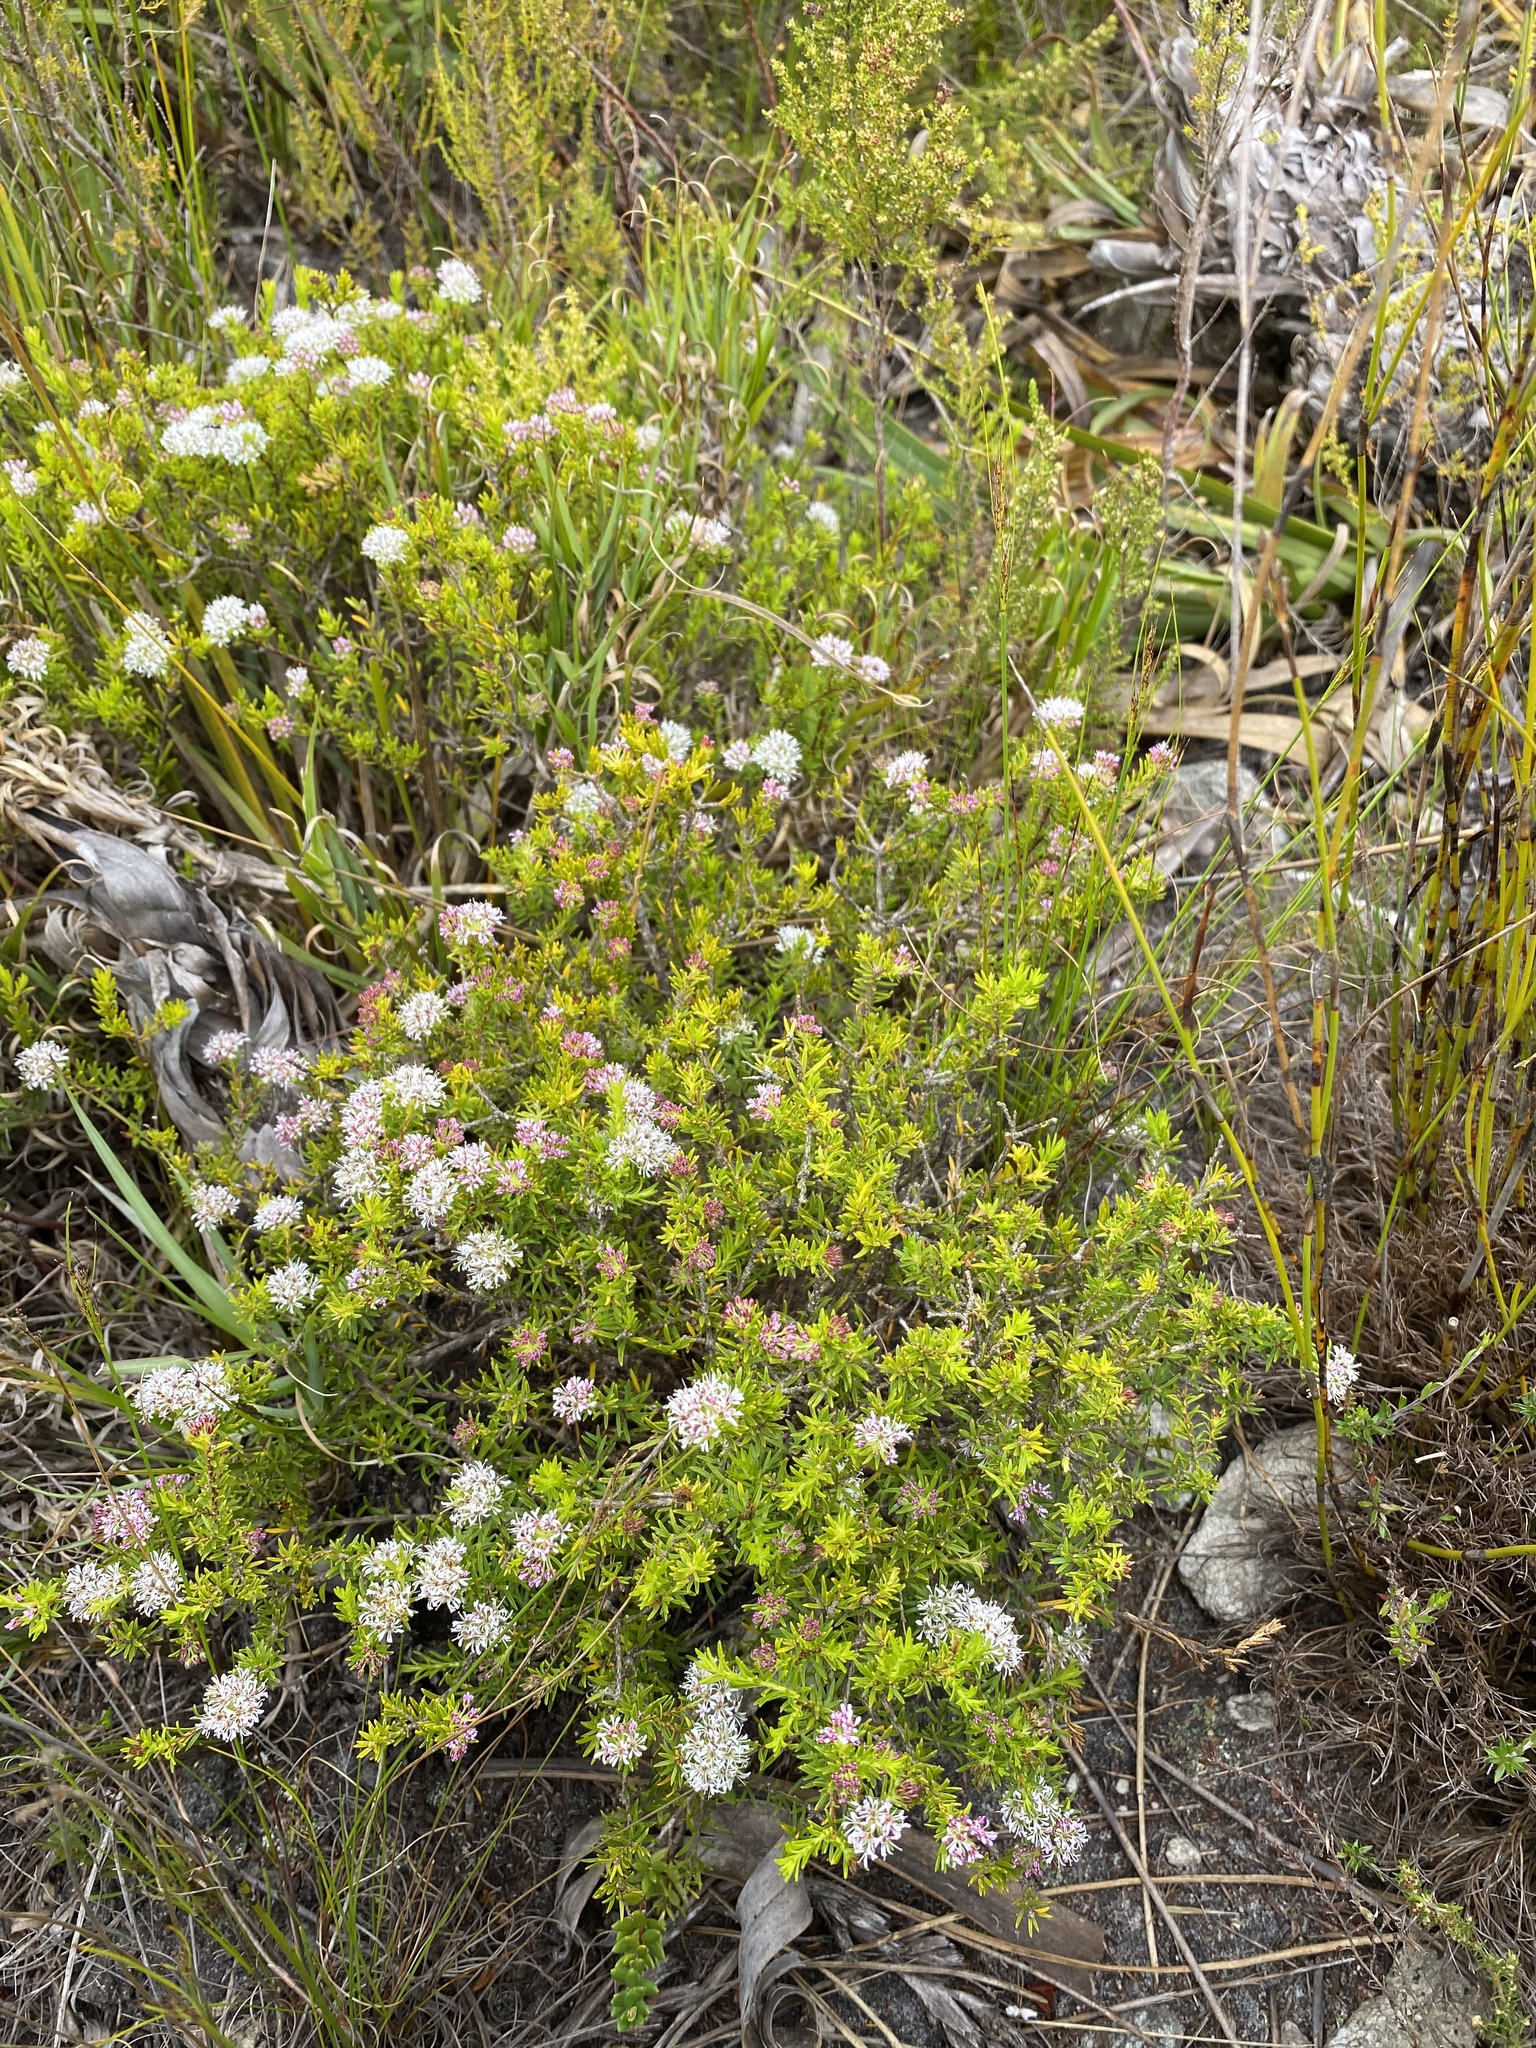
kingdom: Plantae
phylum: Tracheophyta
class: Magnoliopsida
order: Sapindales
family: Rutaceae
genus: Agathosma
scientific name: Agathosma virgata
